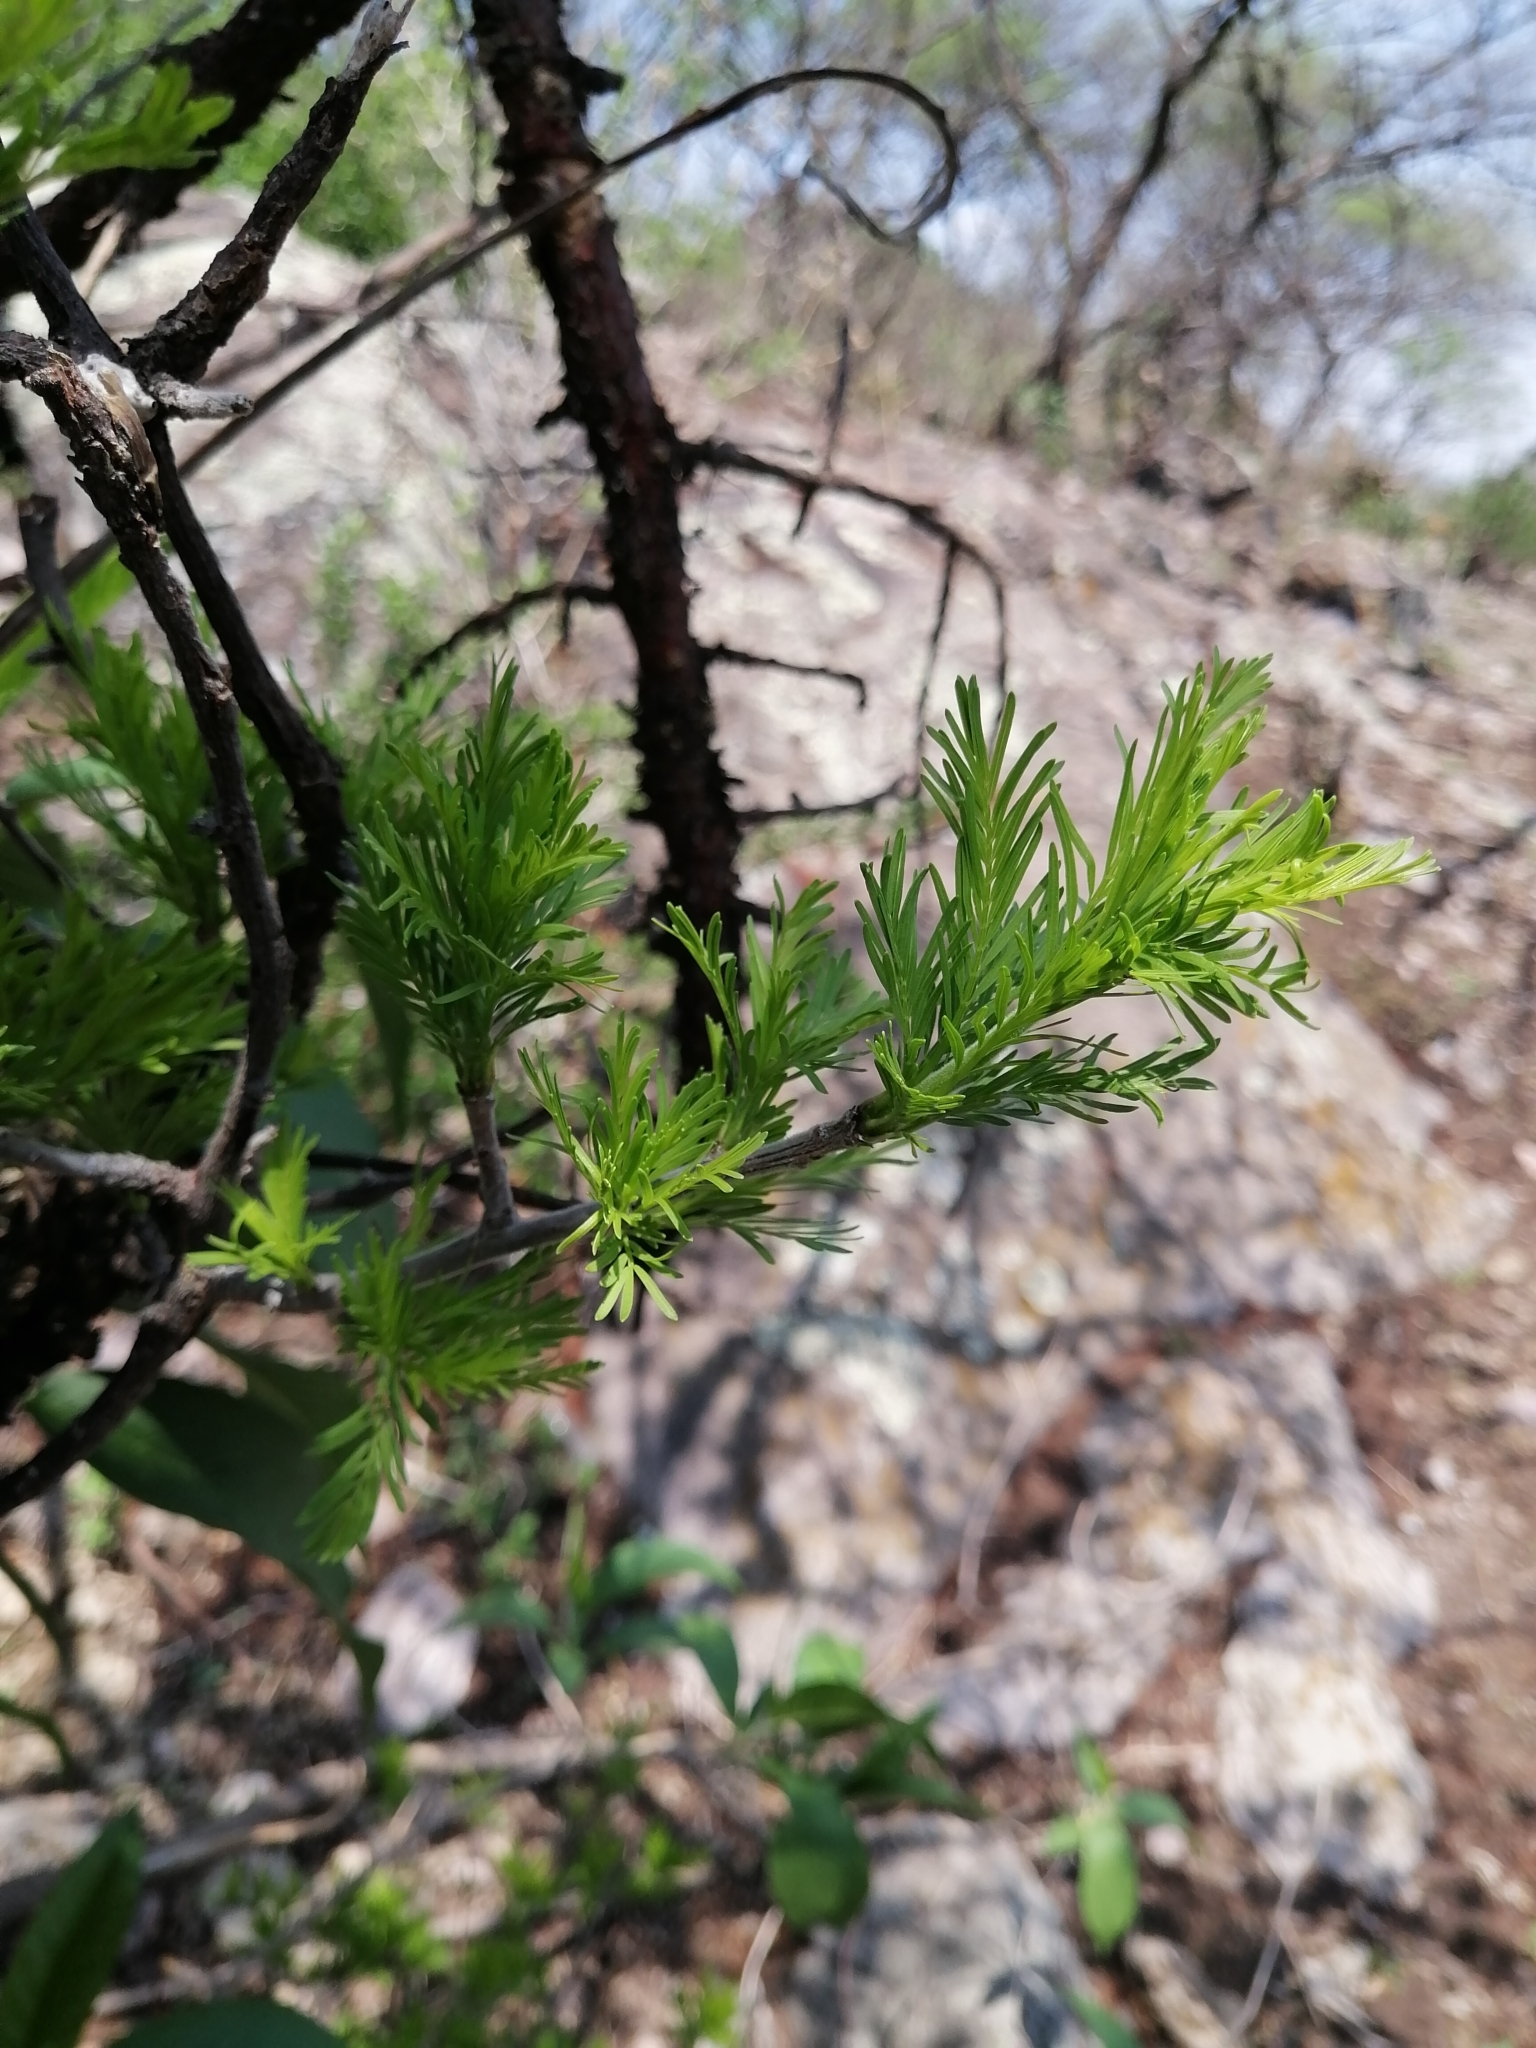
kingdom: Plantae
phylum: Tracheophyta
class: Magnoliopsida
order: Sapindales
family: Burseraceae
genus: Bursera
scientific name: Bursera galeottiana
